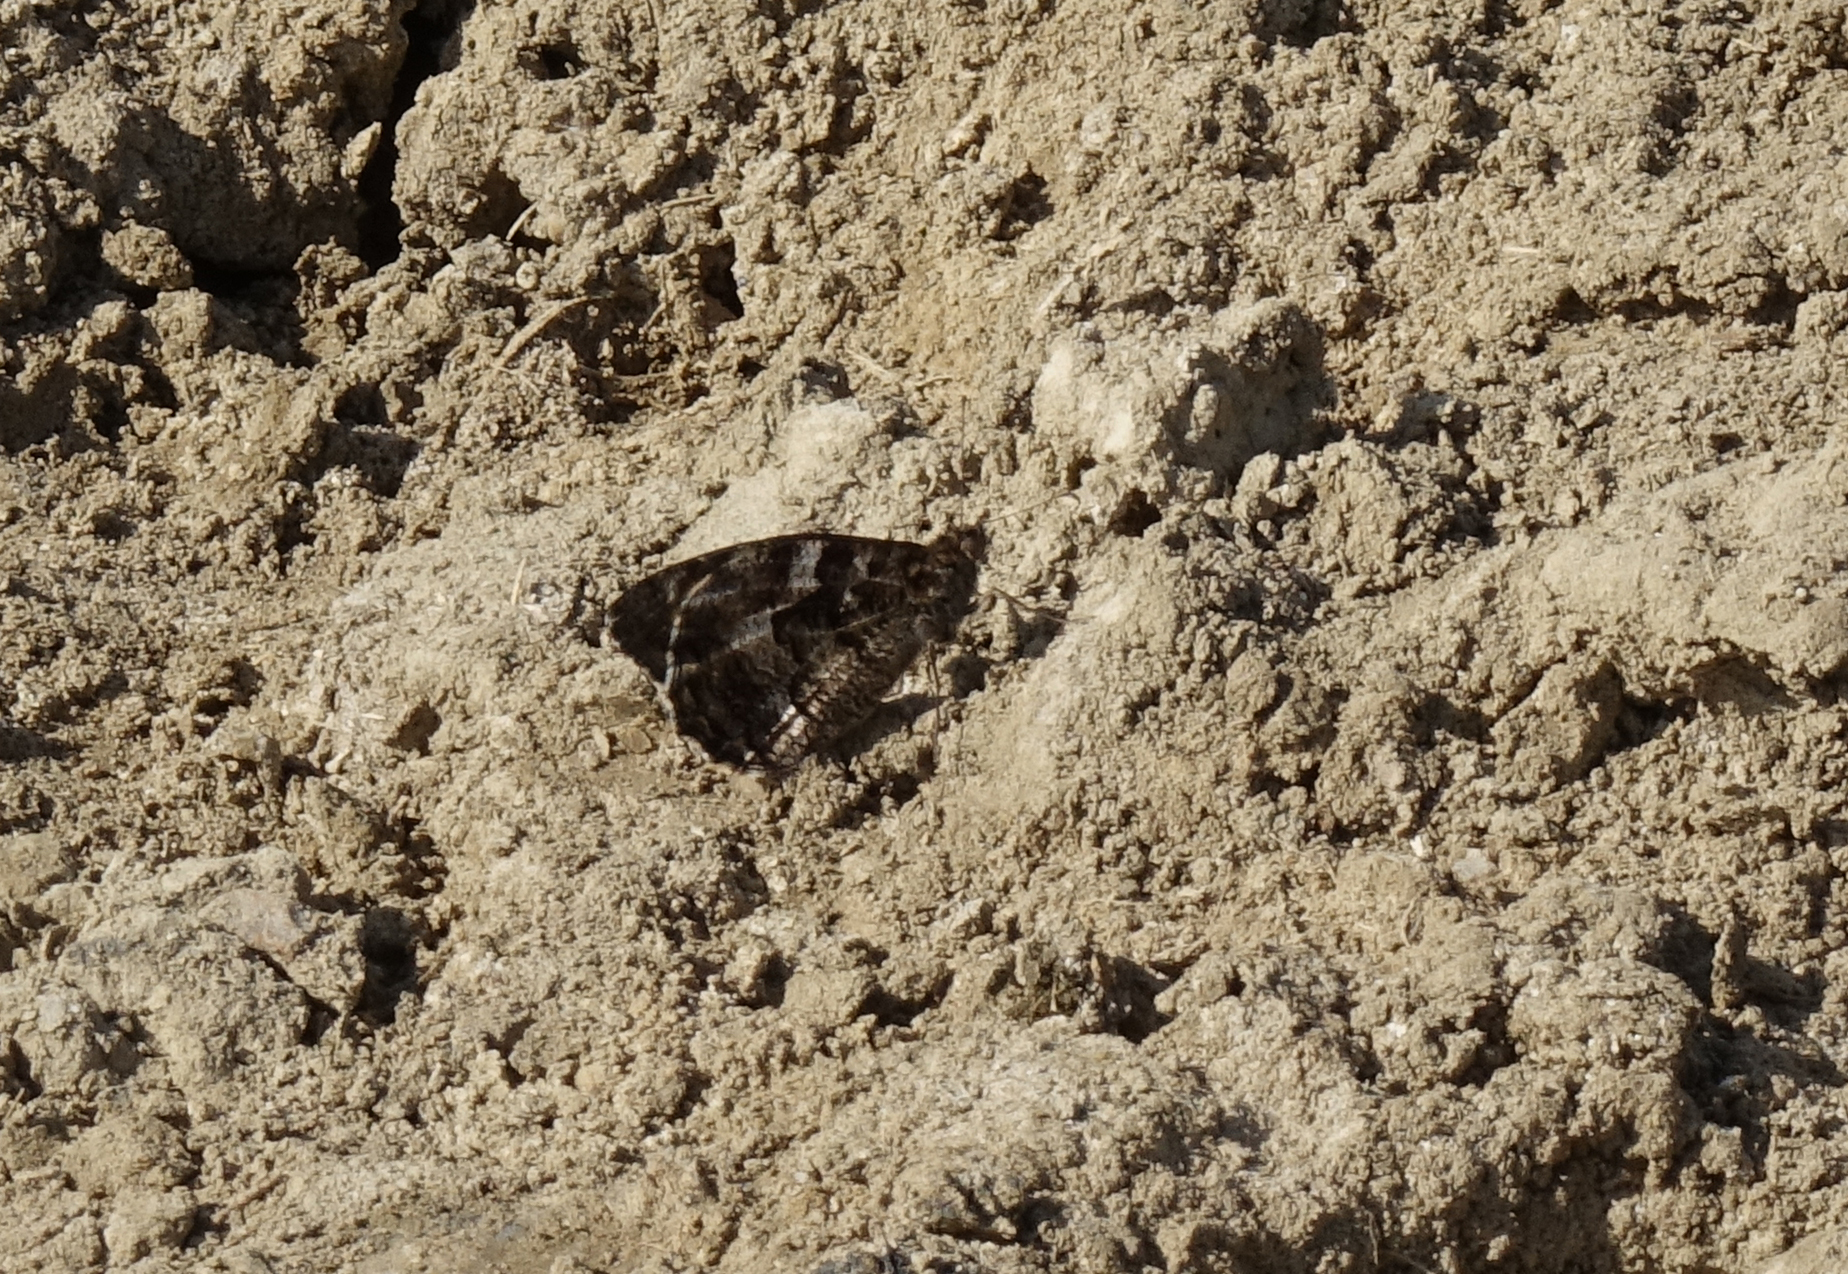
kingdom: Animalia
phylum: Arthropoda
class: Insecta
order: Lepidoptera
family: Nymphalidae
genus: Hipparchia
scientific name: Hipparchia pellucida
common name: Lesbos grayling
